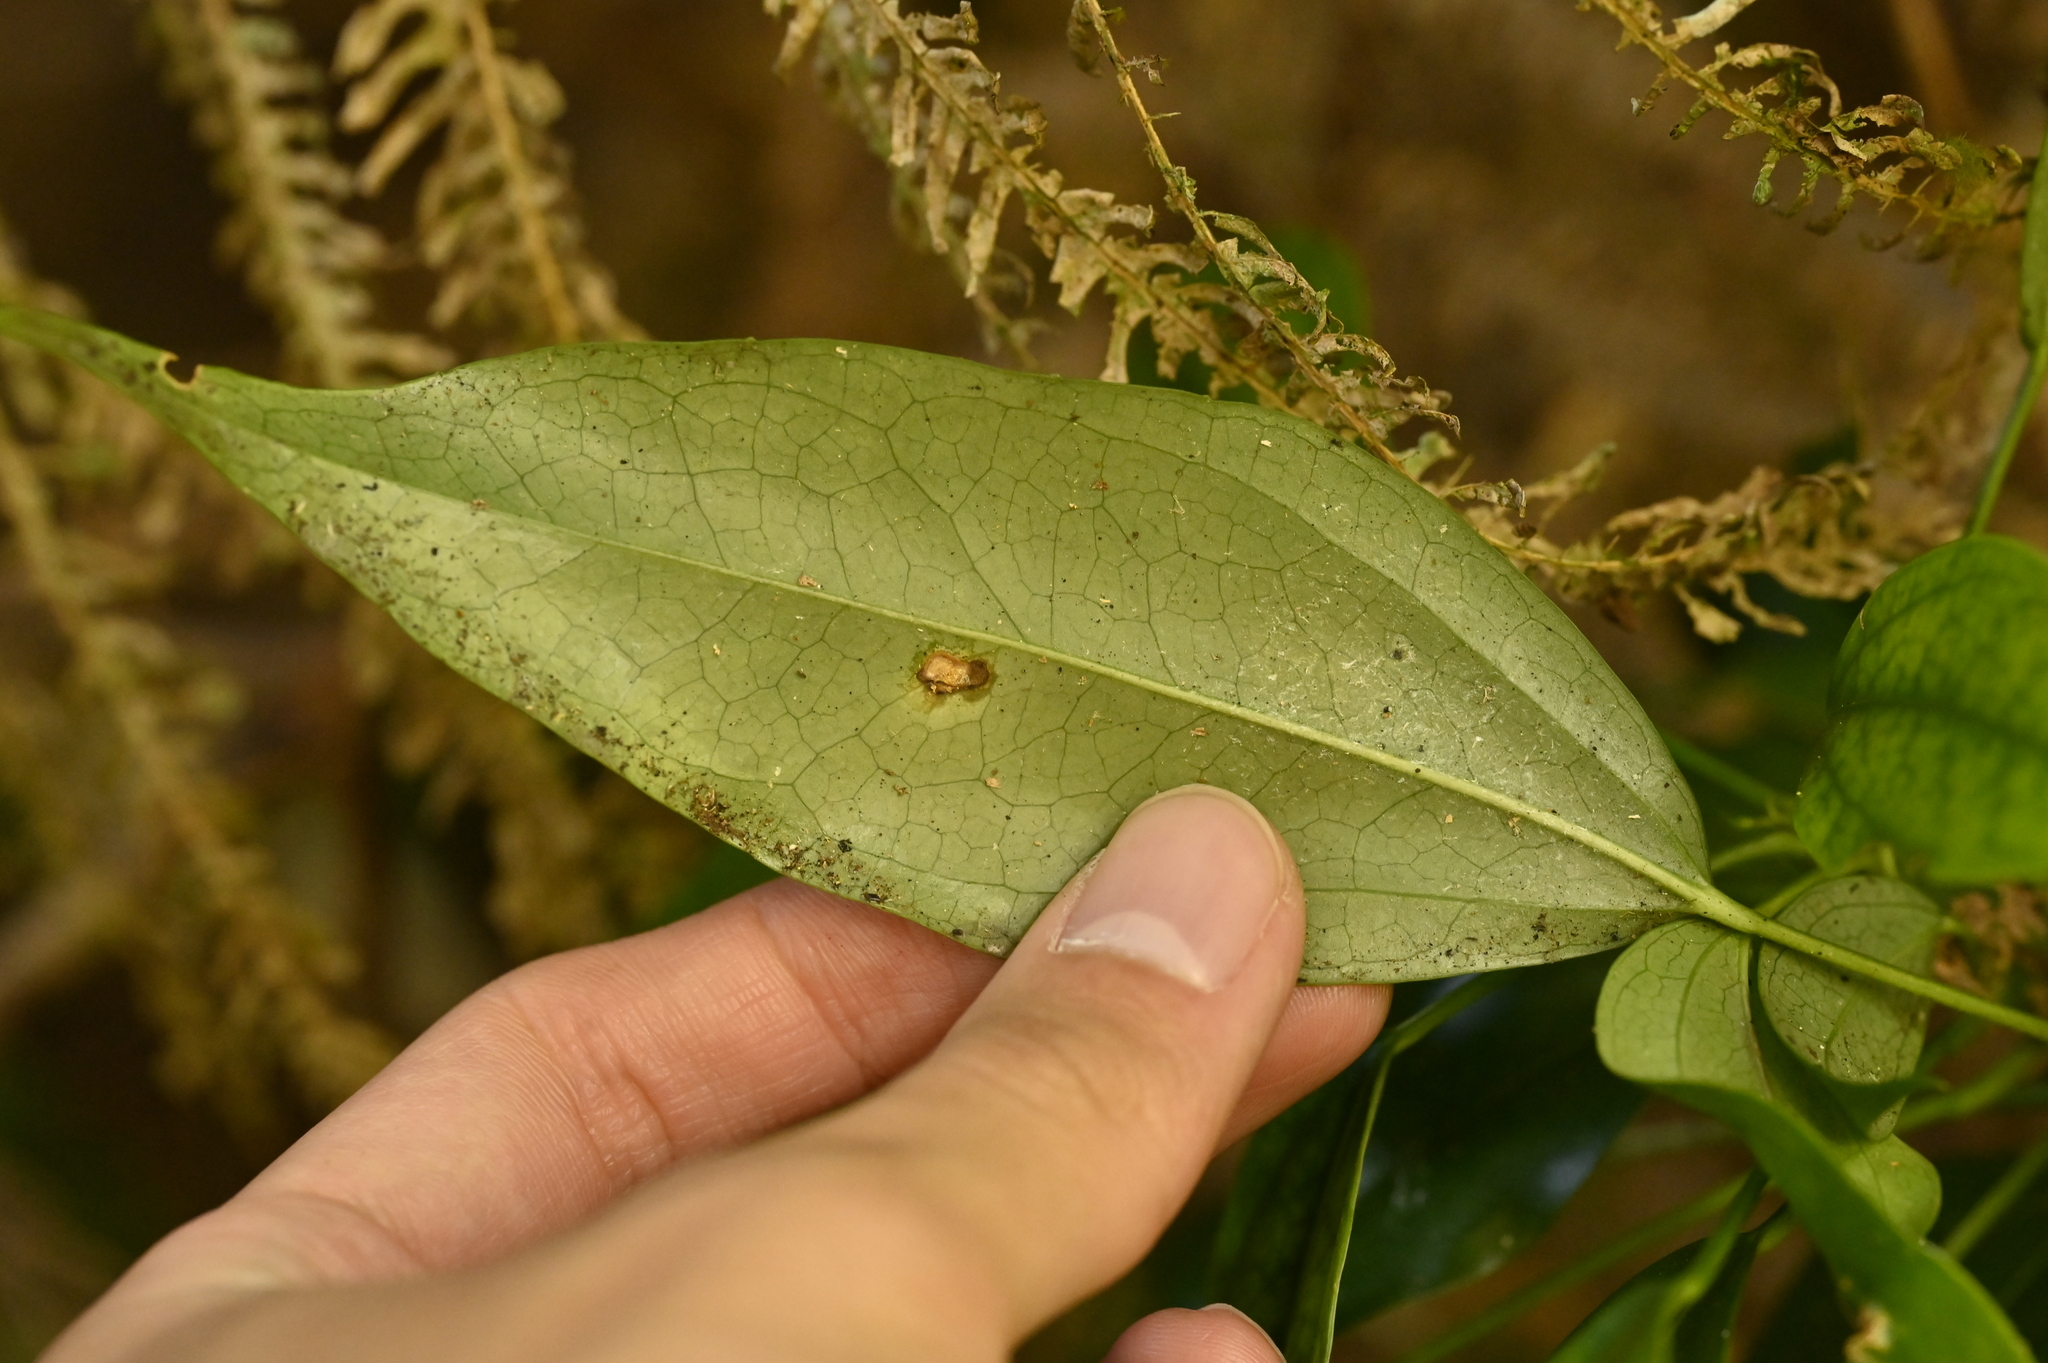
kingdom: Plantae
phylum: Tracheophyta
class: Magnoliopsida
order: Apiales
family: Araliaceae
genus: Dendropanax
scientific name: Dendropanax dentiger
